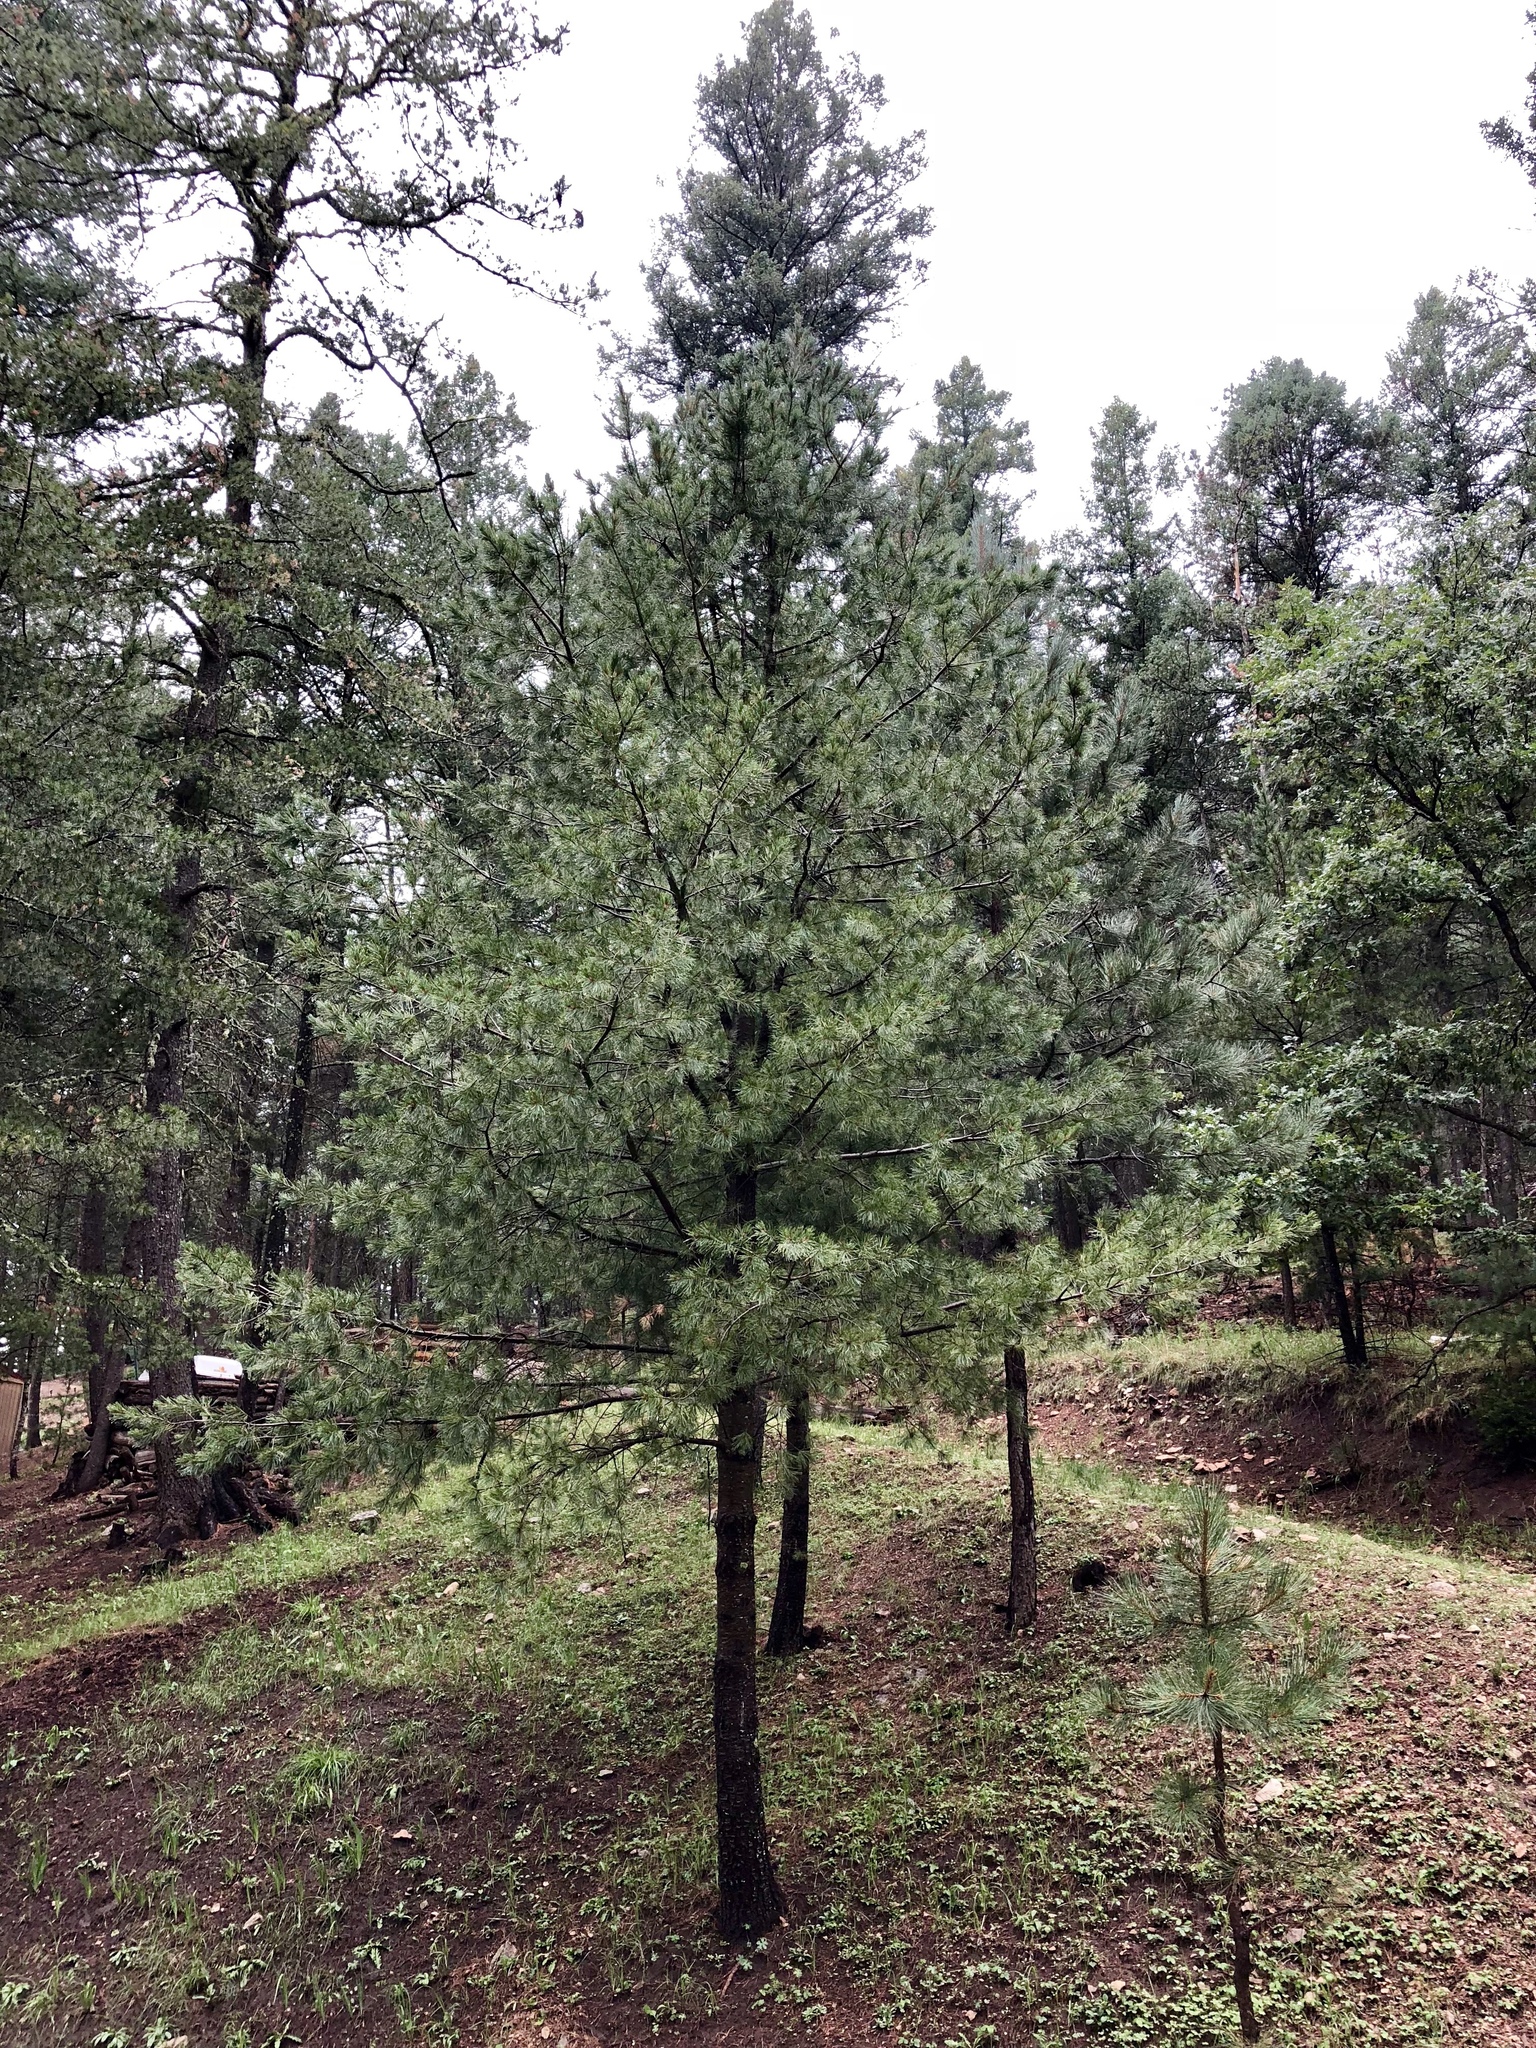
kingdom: Plantae
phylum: Tracheophyta
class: Pinopsida
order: Pinales
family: Pinaceae
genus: Pinus
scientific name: Pinus strobiformis
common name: Southwestern white pine
